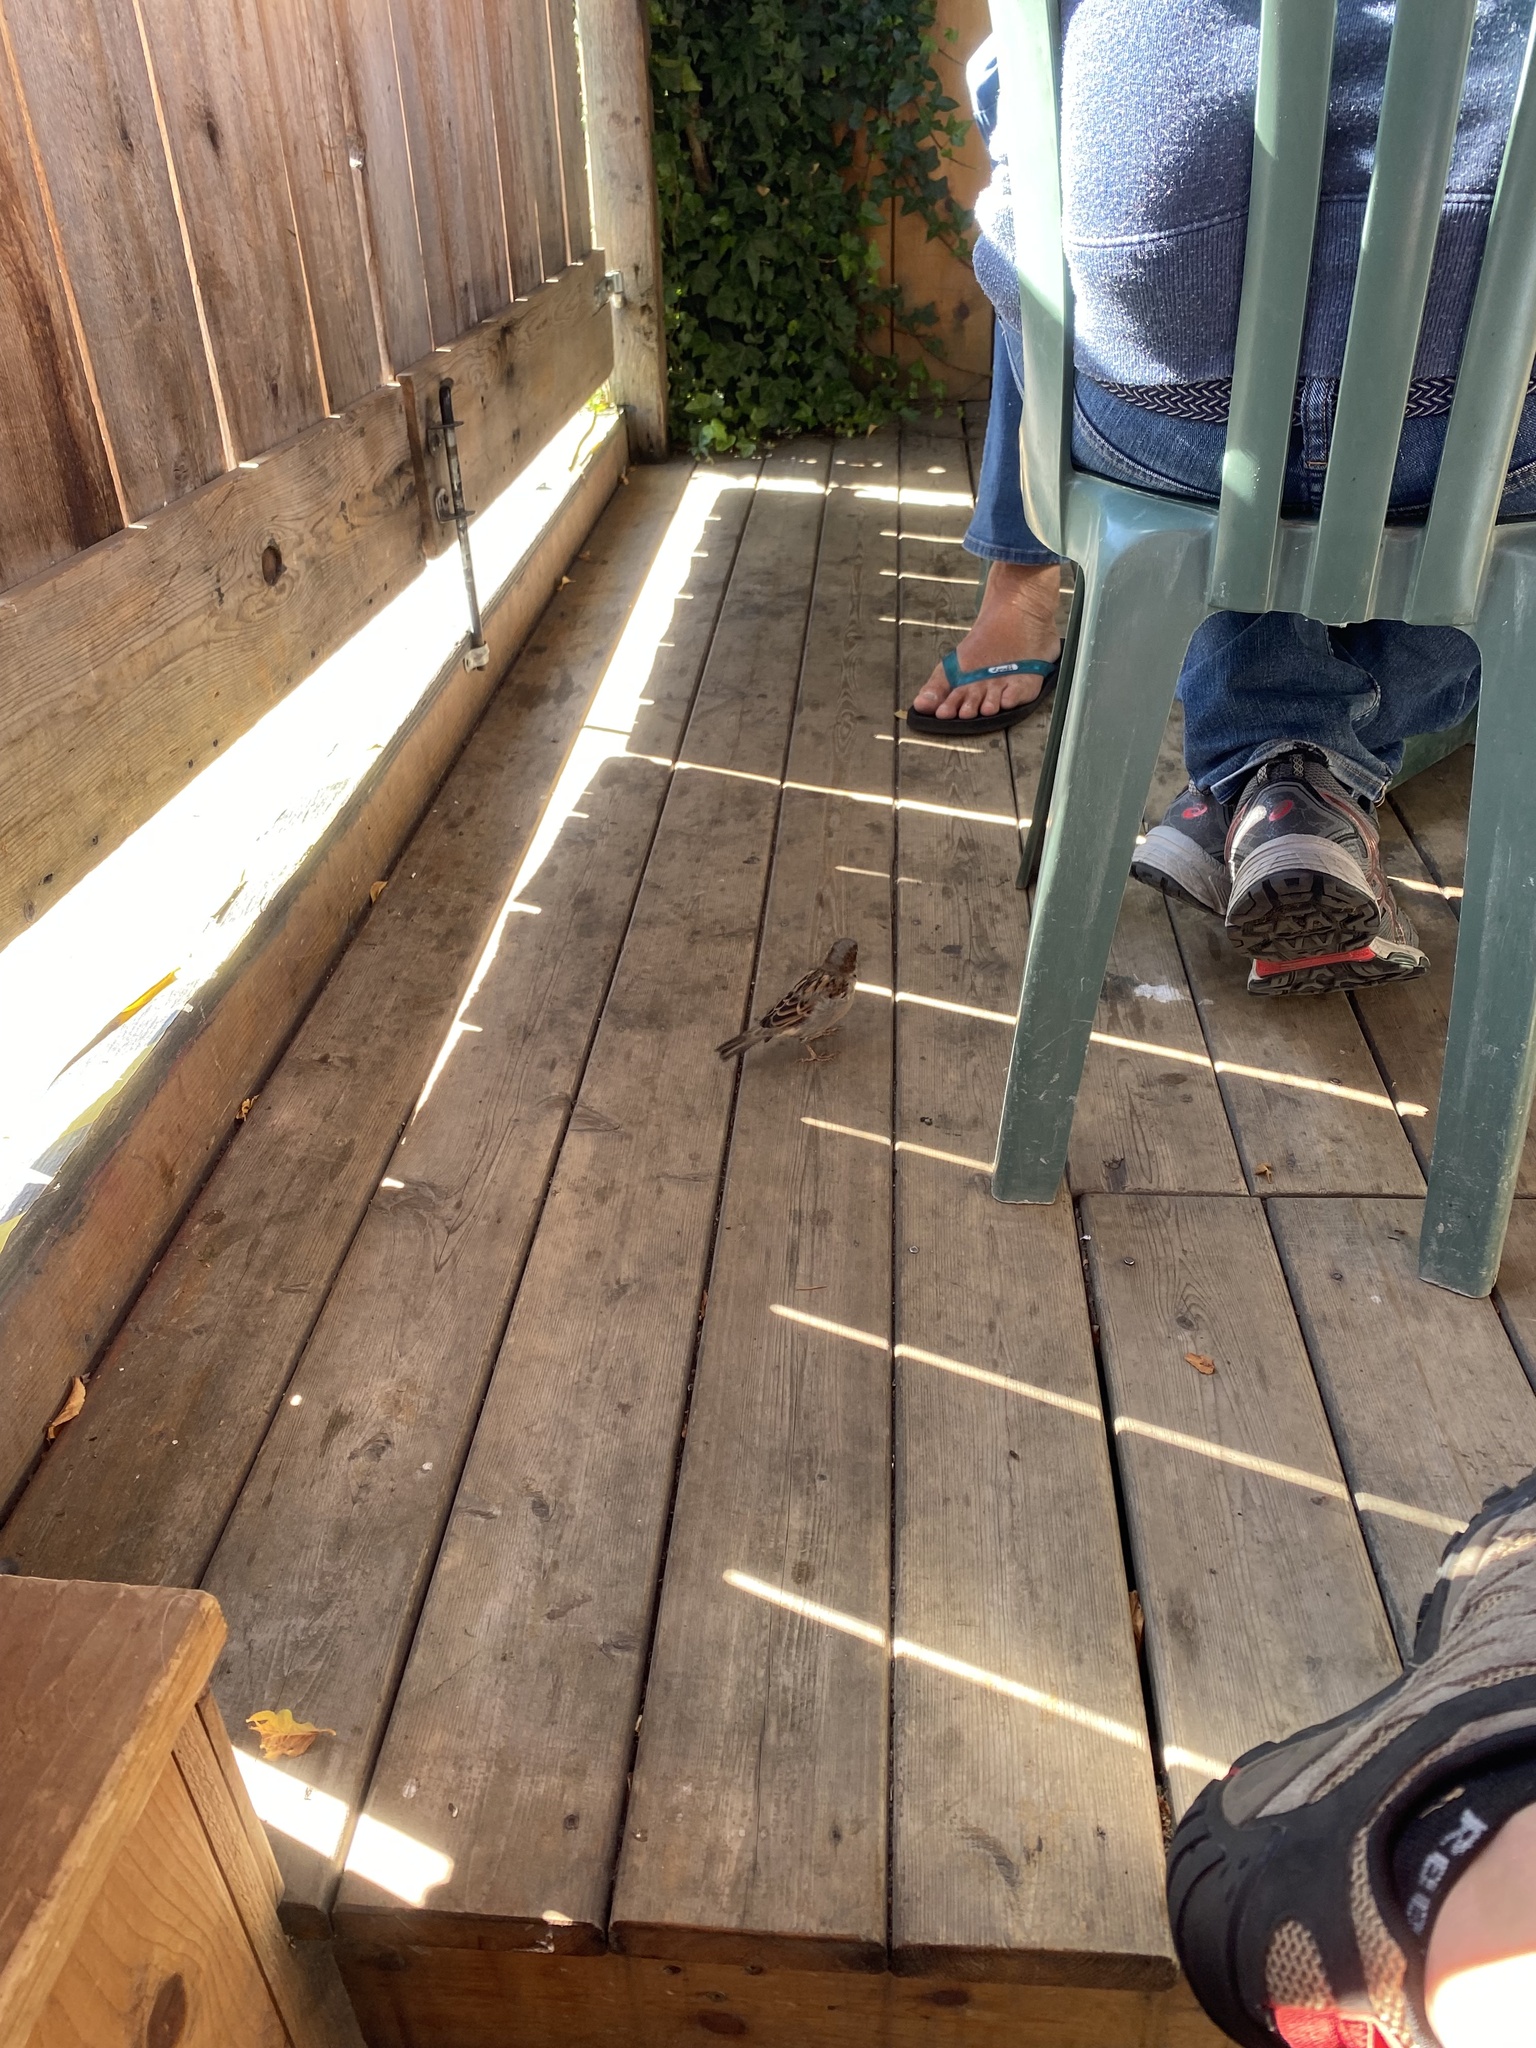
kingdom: Animalia
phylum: Chordata
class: Aves
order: Passeriformes
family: Passeridae
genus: Passer
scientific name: Passer domesticus
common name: House sparrow
